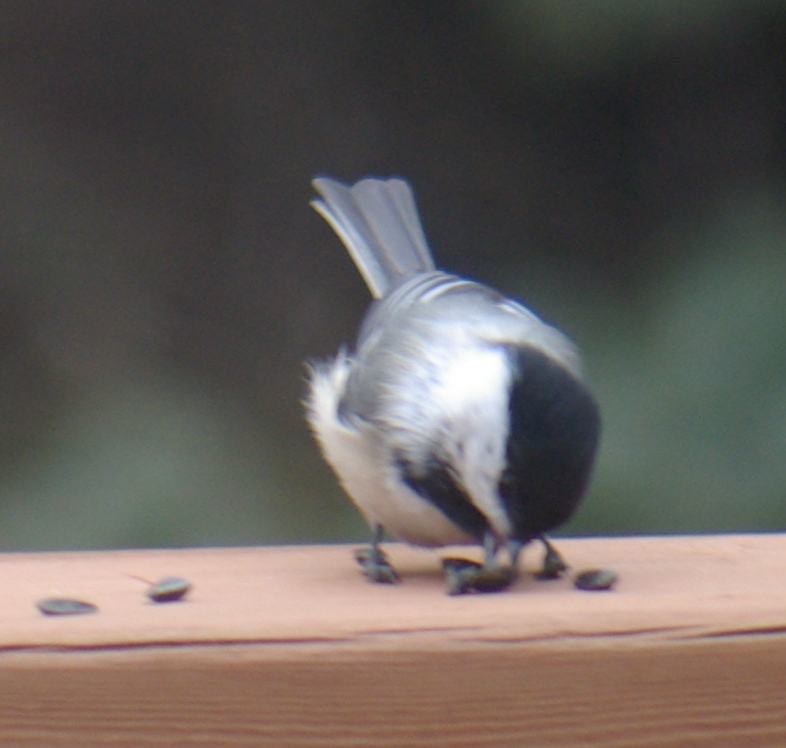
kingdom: Animalia
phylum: Chordata
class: Aves
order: Passeriformes
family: Paridae
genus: Poecile
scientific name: Poecile atricapillus
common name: Black-capped chickadee
